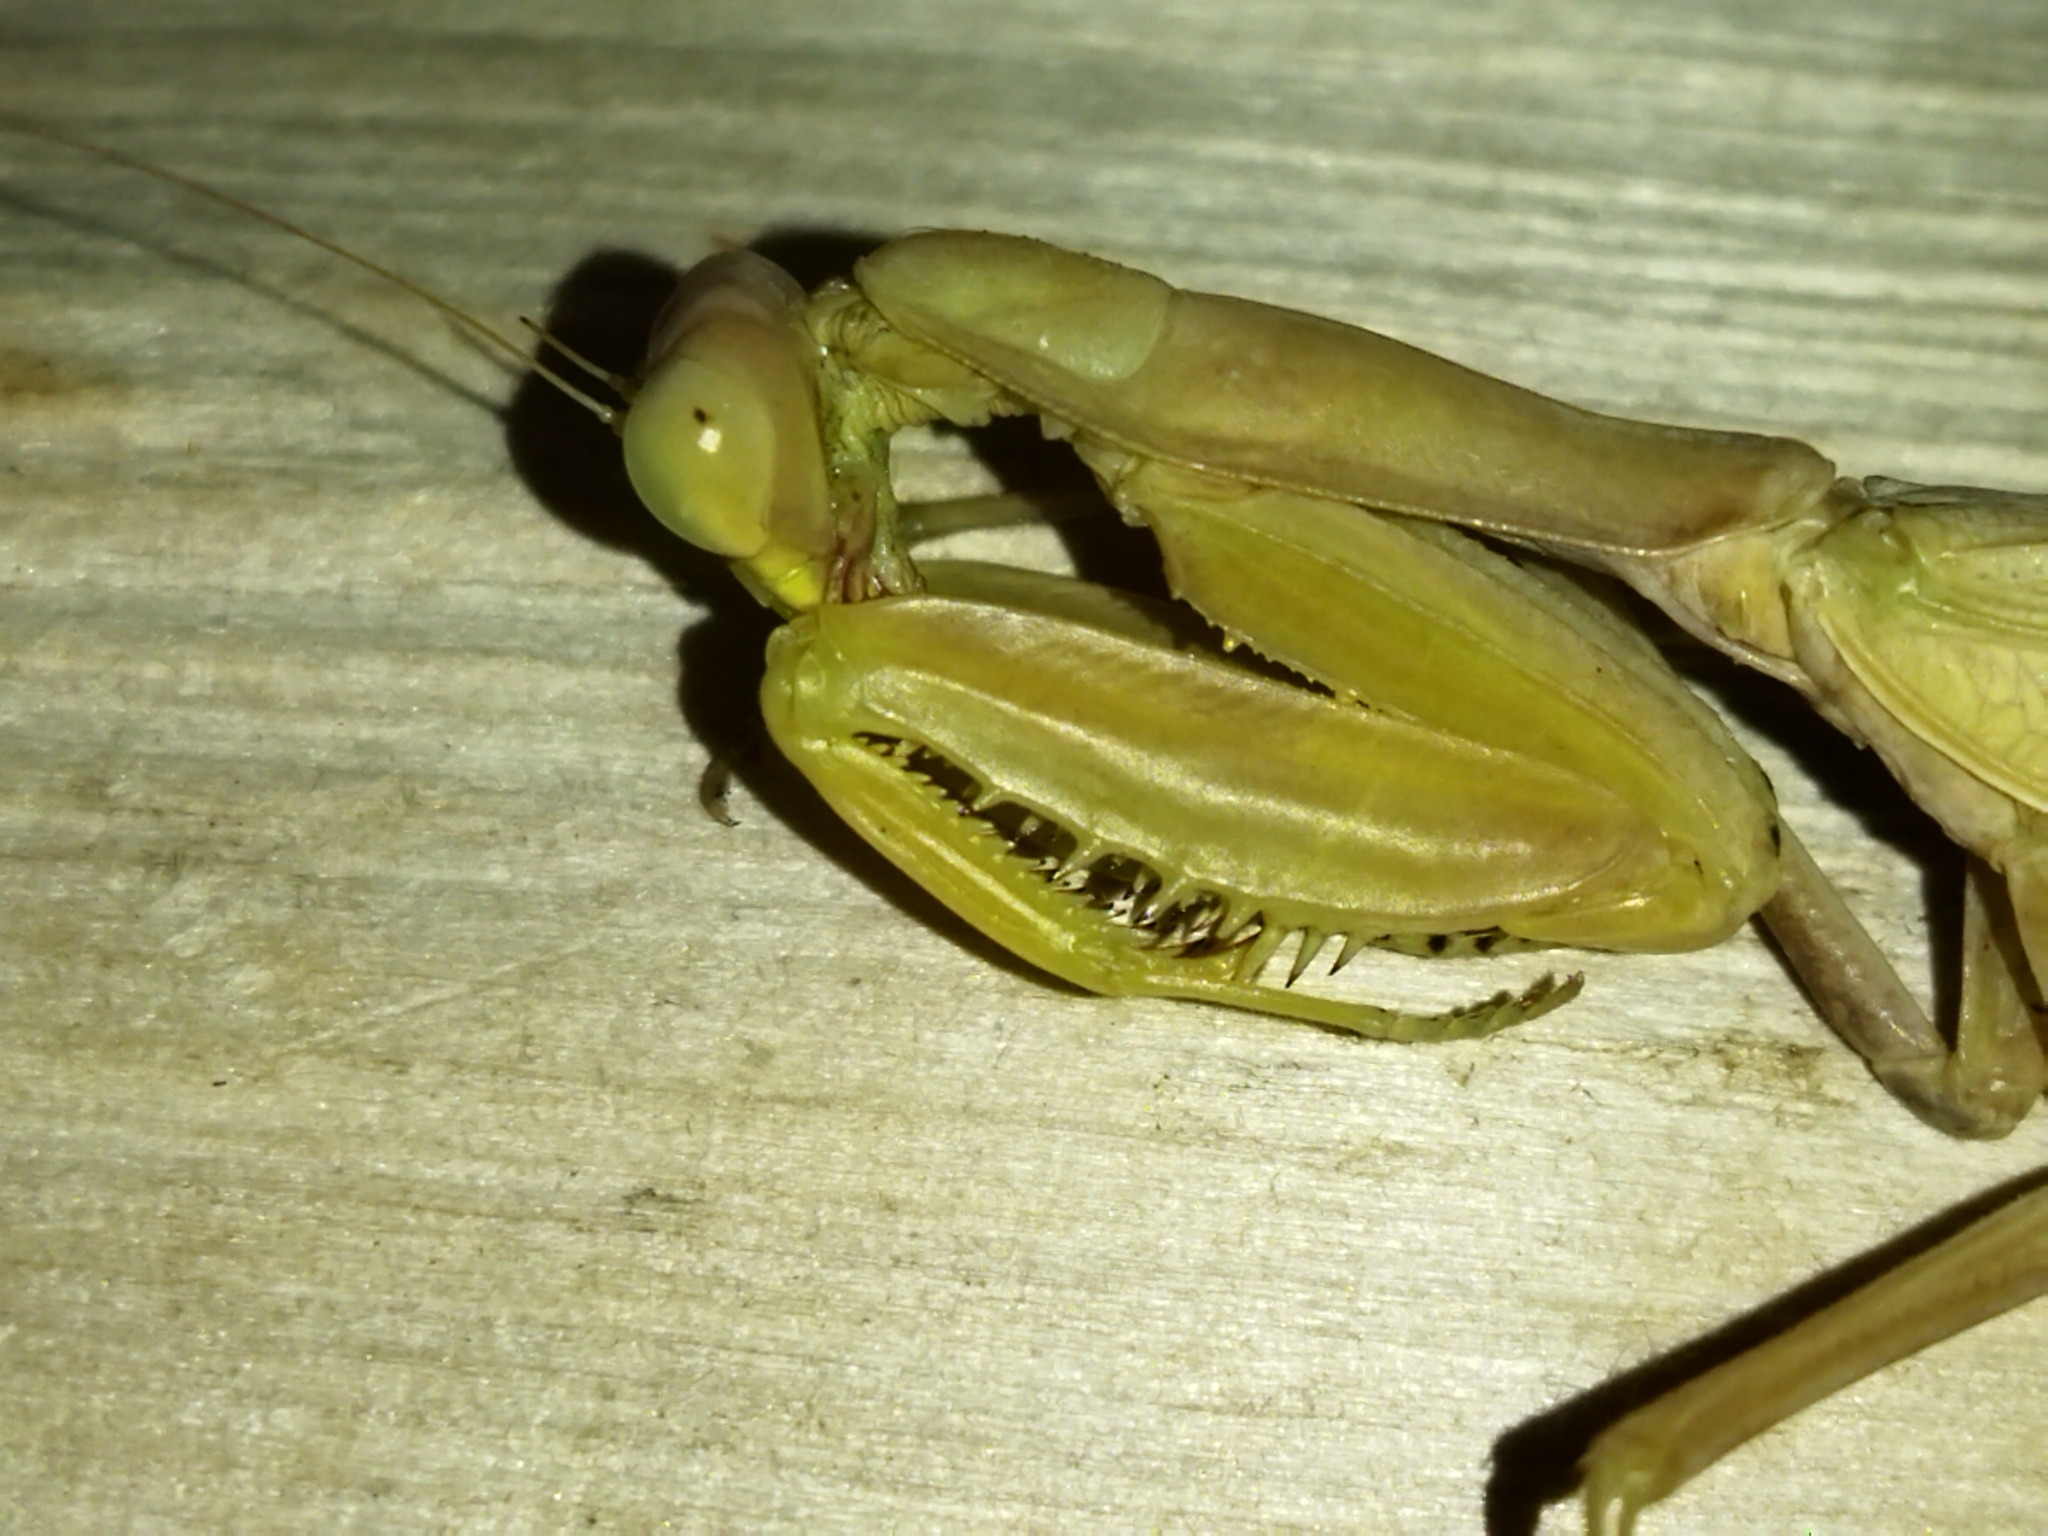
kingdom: Animalia
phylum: Arthropoda
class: Insecta
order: Mantodea
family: Mantidae
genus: Hierodula
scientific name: Hierodula transcaucasica
